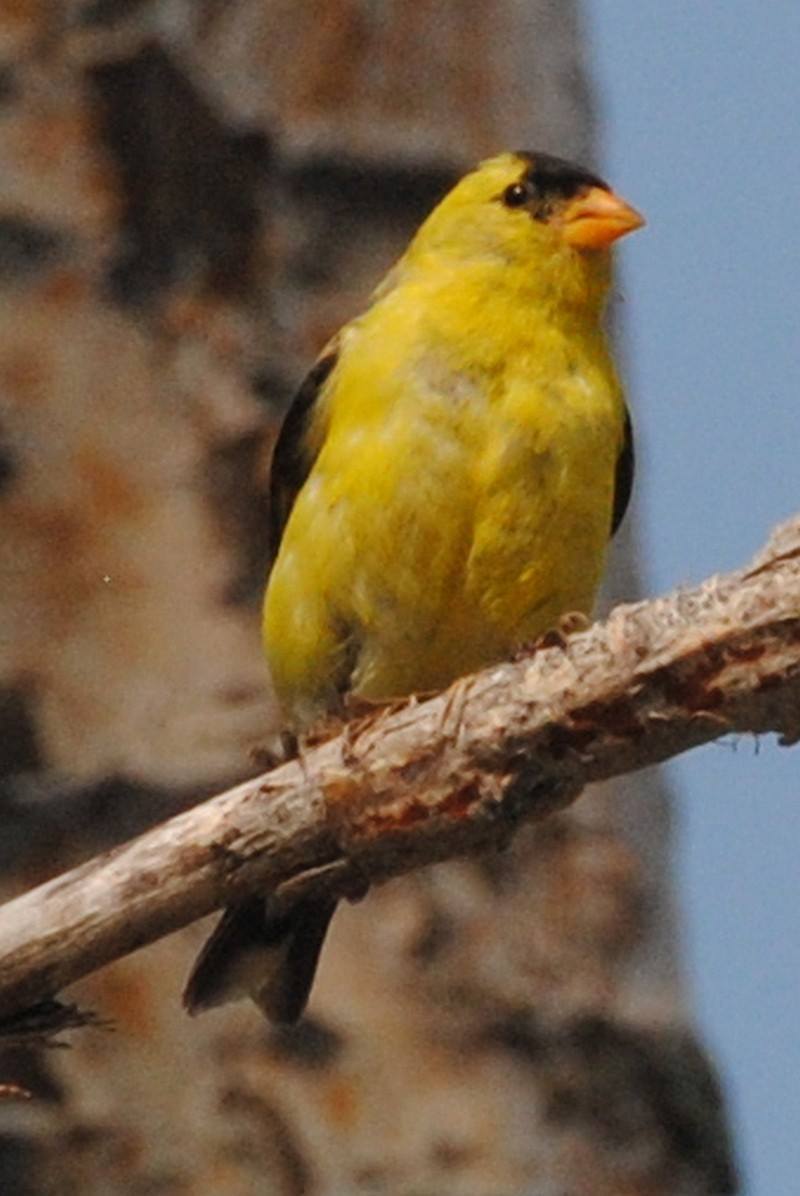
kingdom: Animalia
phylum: Chordata
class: Aves
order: Passeriformes
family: Fringillidae
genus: Spinus
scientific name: Spinus tristis
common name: American goldfinch
